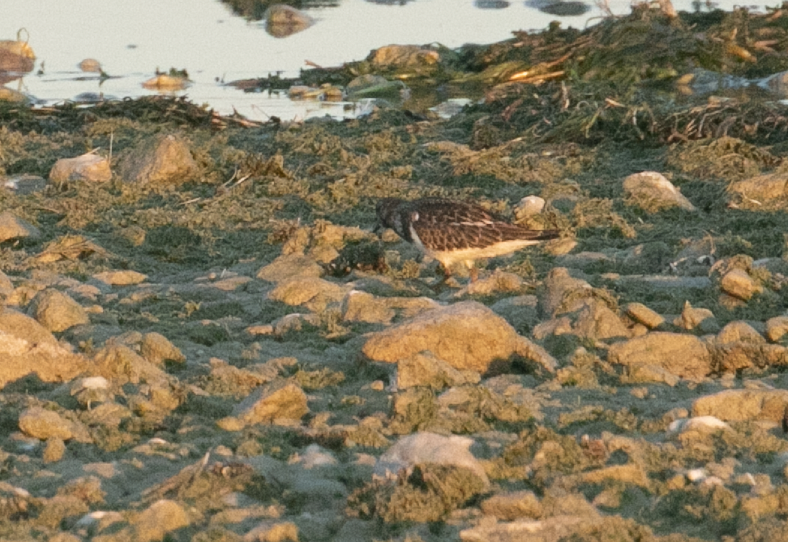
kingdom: Animalia
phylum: Chordata
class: Aves
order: Charadriiformes
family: Scolopacidae
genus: Arenaria
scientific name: Arenaria interpres
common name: Ruddy turnstone
